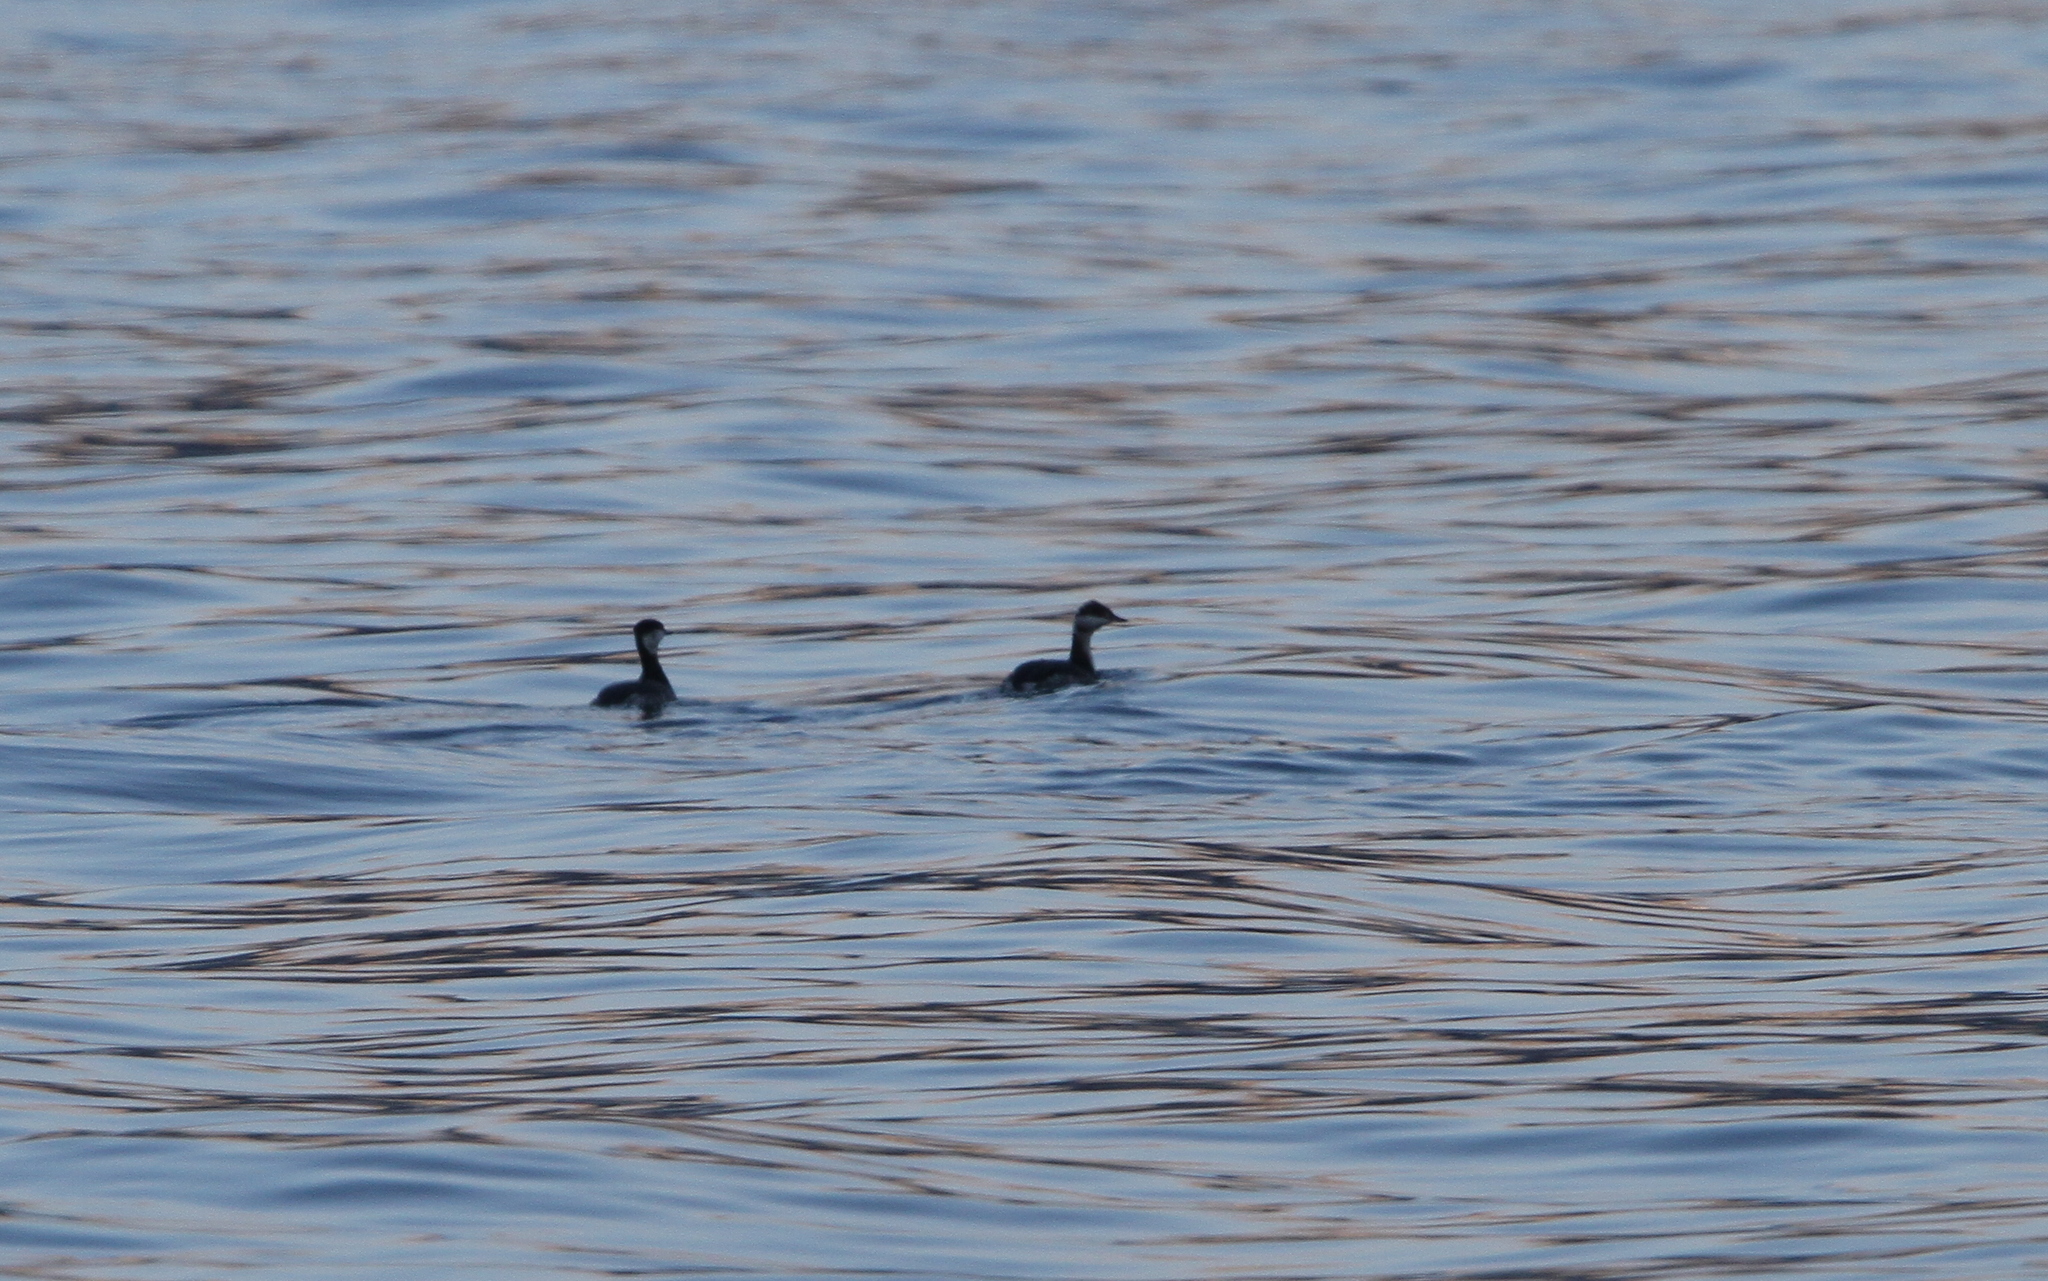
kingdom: Animalia
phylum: Chordata
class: Aves
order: Podicipediformes
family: Podicipedidae
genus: Podiceps
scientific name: Podiceps auritus
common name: Horned grebe
